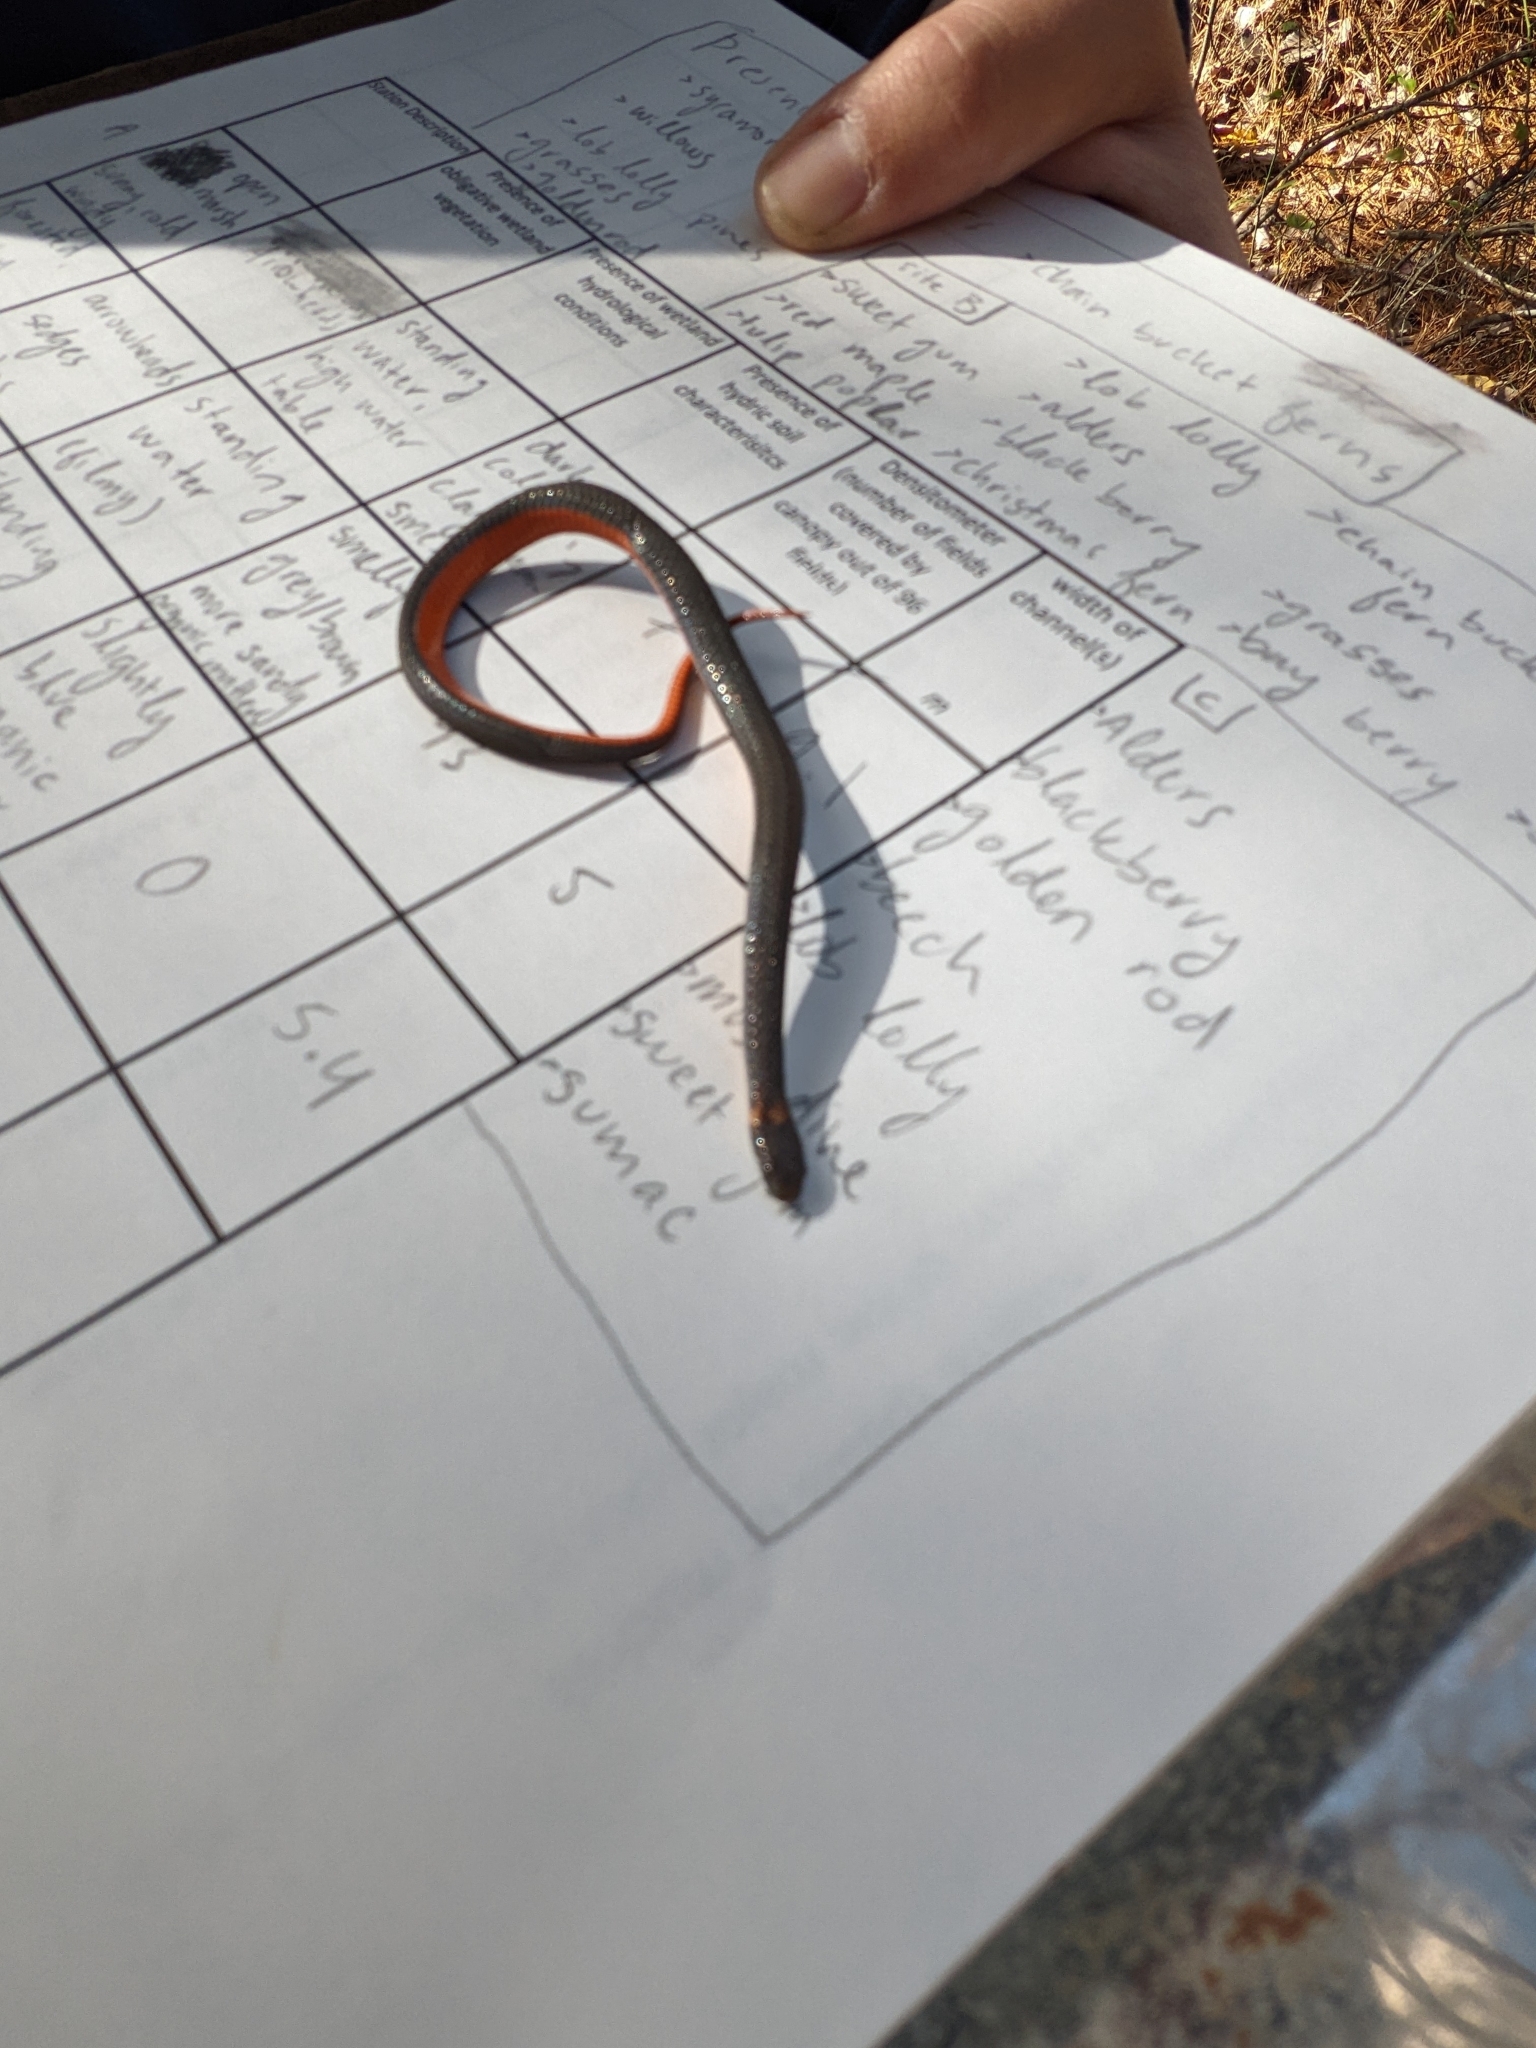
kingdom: Animalia
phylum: Chordata
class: Squamata
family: Colubridae
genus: Storeria
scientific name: Storeria occipitomaculata
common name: Redbelly snake
